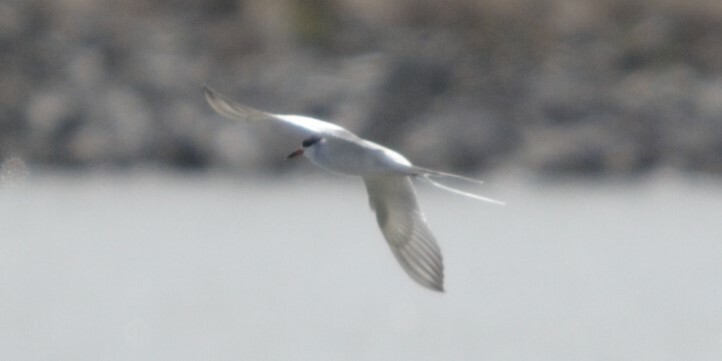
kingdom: Animalia
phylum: Chordata
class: Aves
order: Charadriiformes
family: Laridae
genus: Sterna
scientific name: Sterna forsteri
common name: Forster's tern
